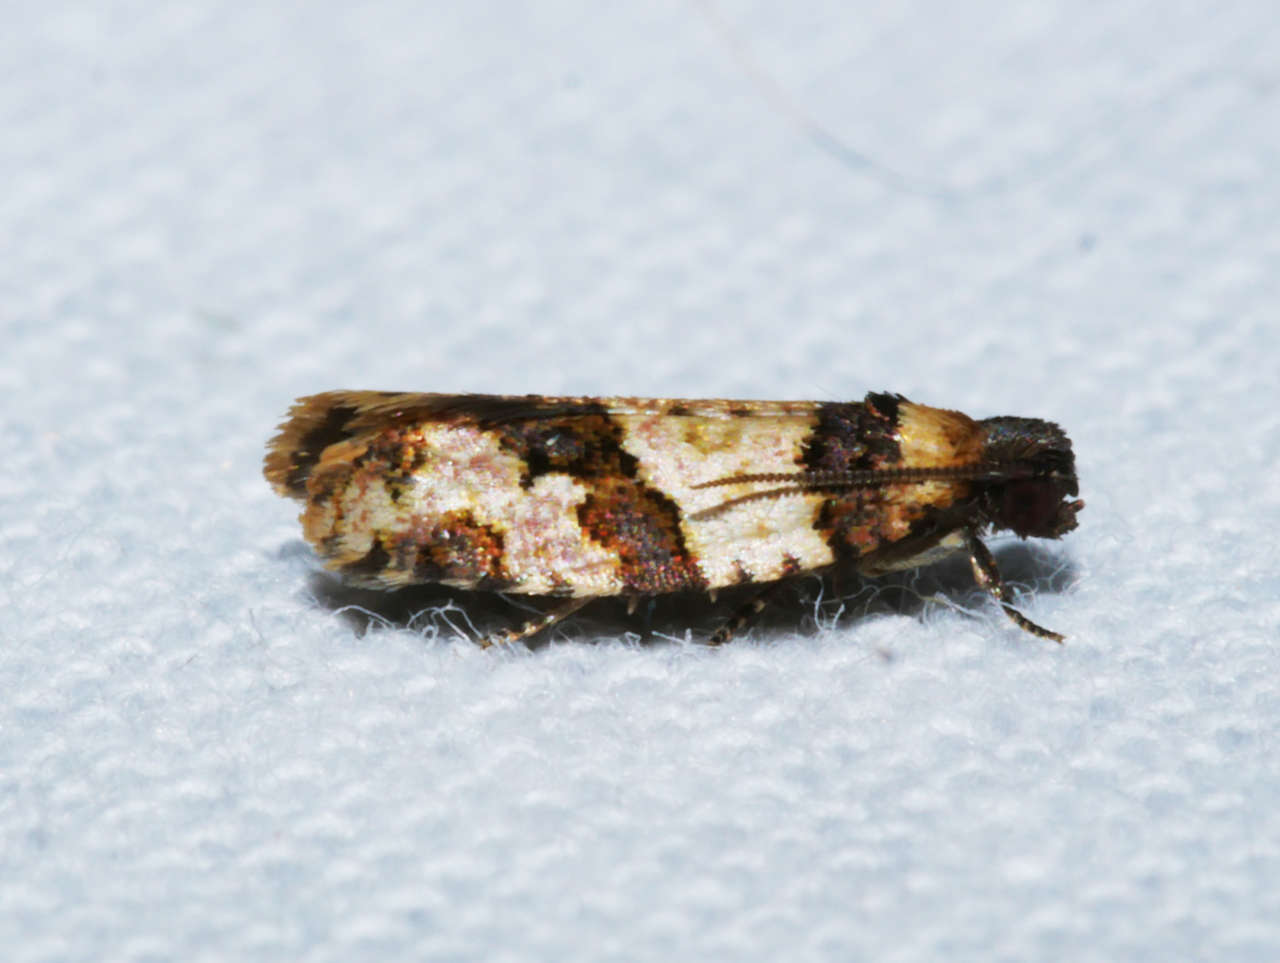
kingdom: Animalia
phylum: Arthropoda
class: Insecta
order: Lepidoptera
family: Tortricidae
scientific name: Tortricidae
